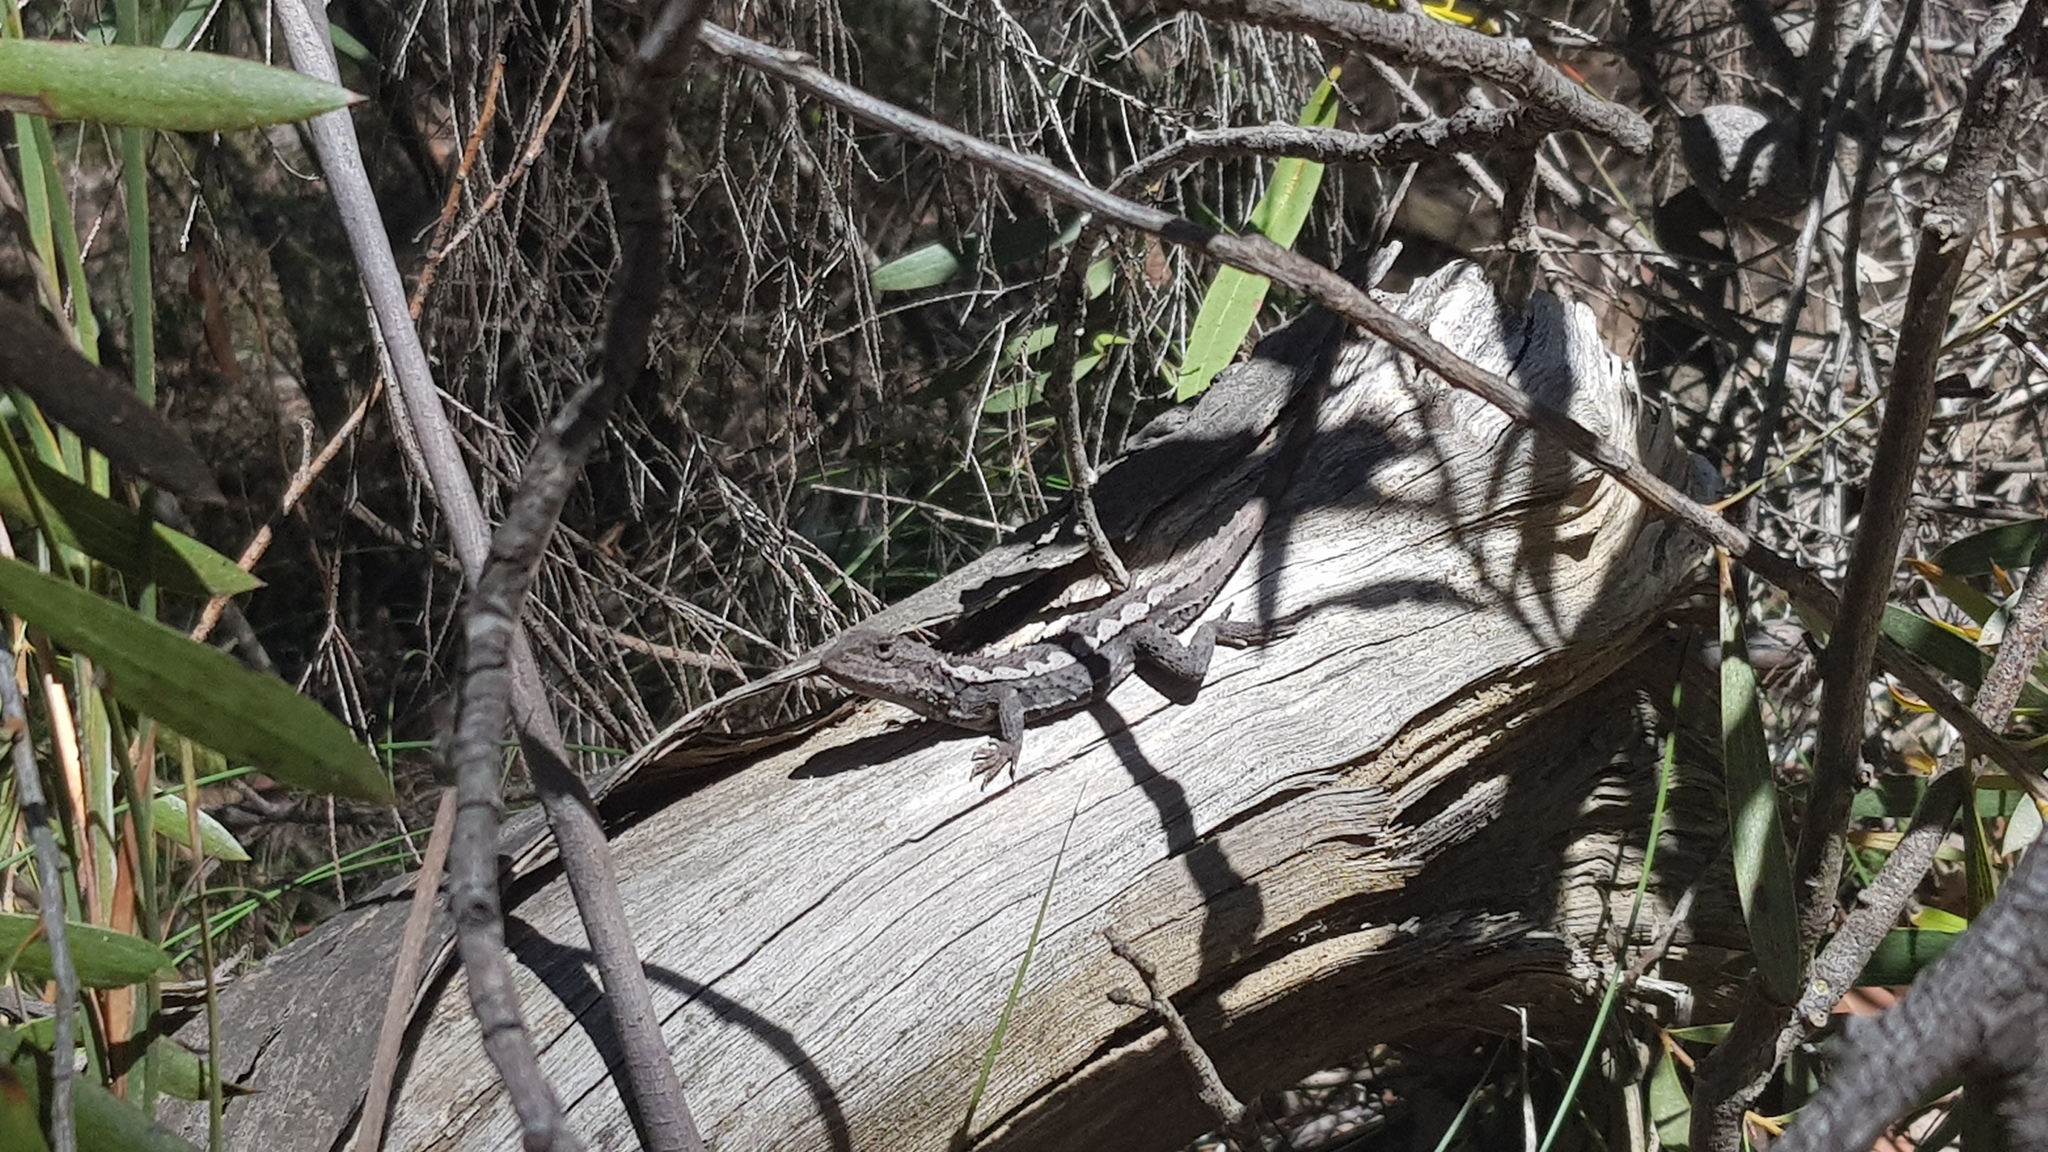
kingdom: Animalia
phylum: Chordata
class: Squamata
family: Agamidae
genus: Rankinia
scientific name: Rankinia diemensis
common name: Mountain dragon
